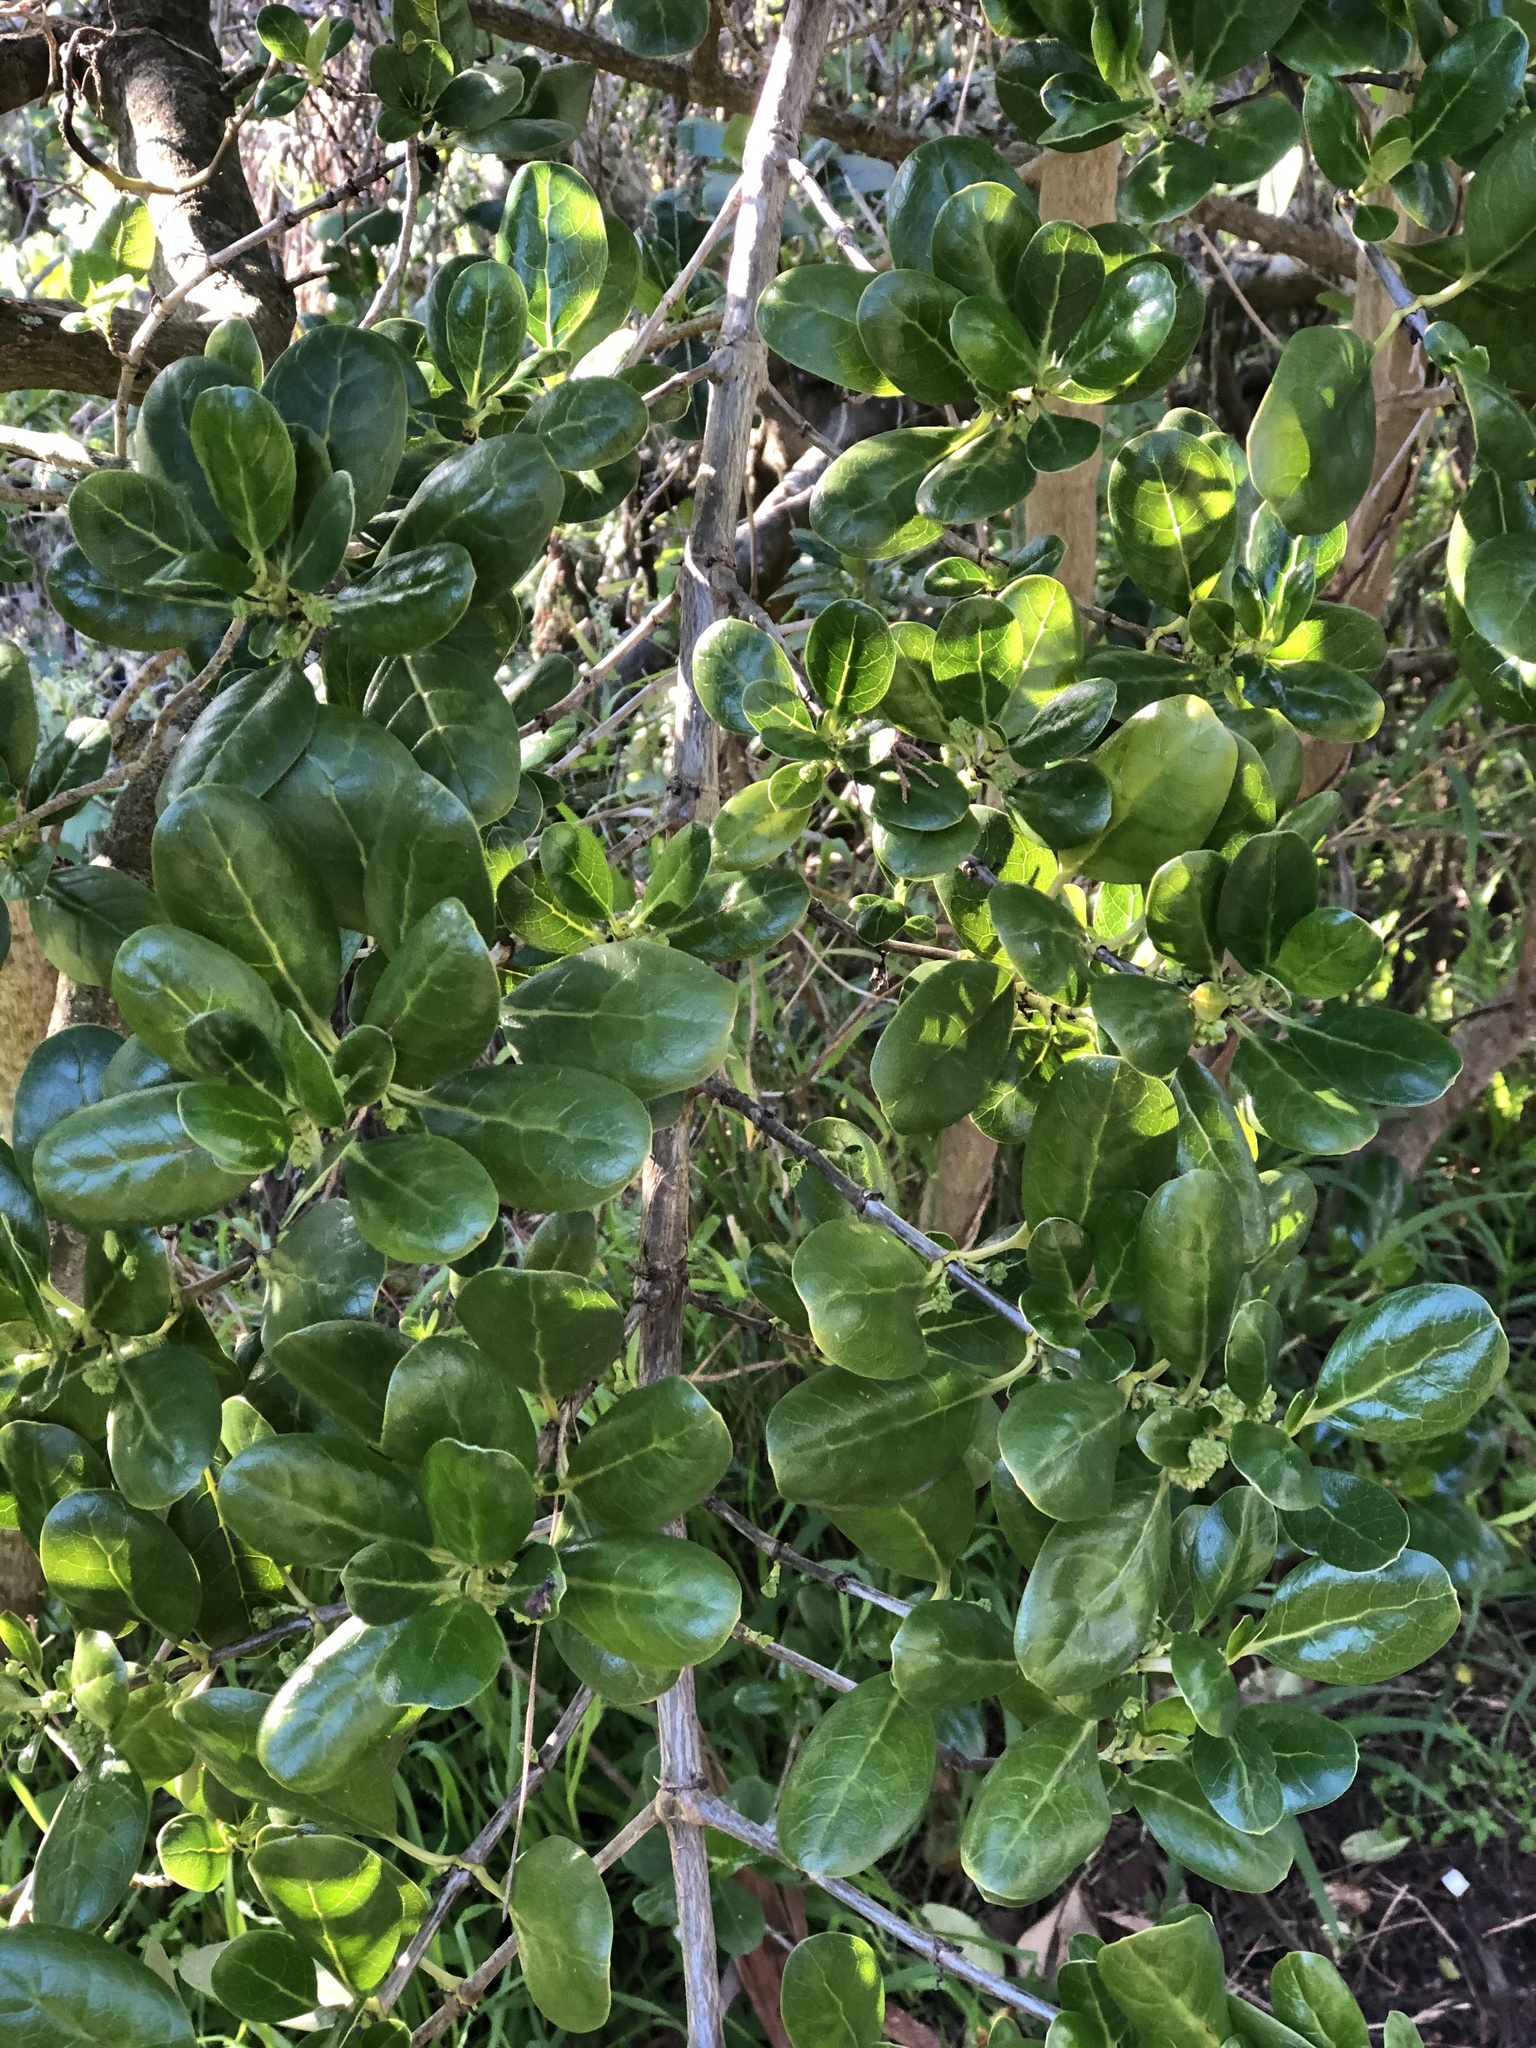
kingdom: Plantae
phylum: Tracheophyta
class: Magnoliopsida
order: Gentianales
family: Rubiaceae
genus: Coprosma
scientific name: Coprosma repens
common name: Tree bedstraw
